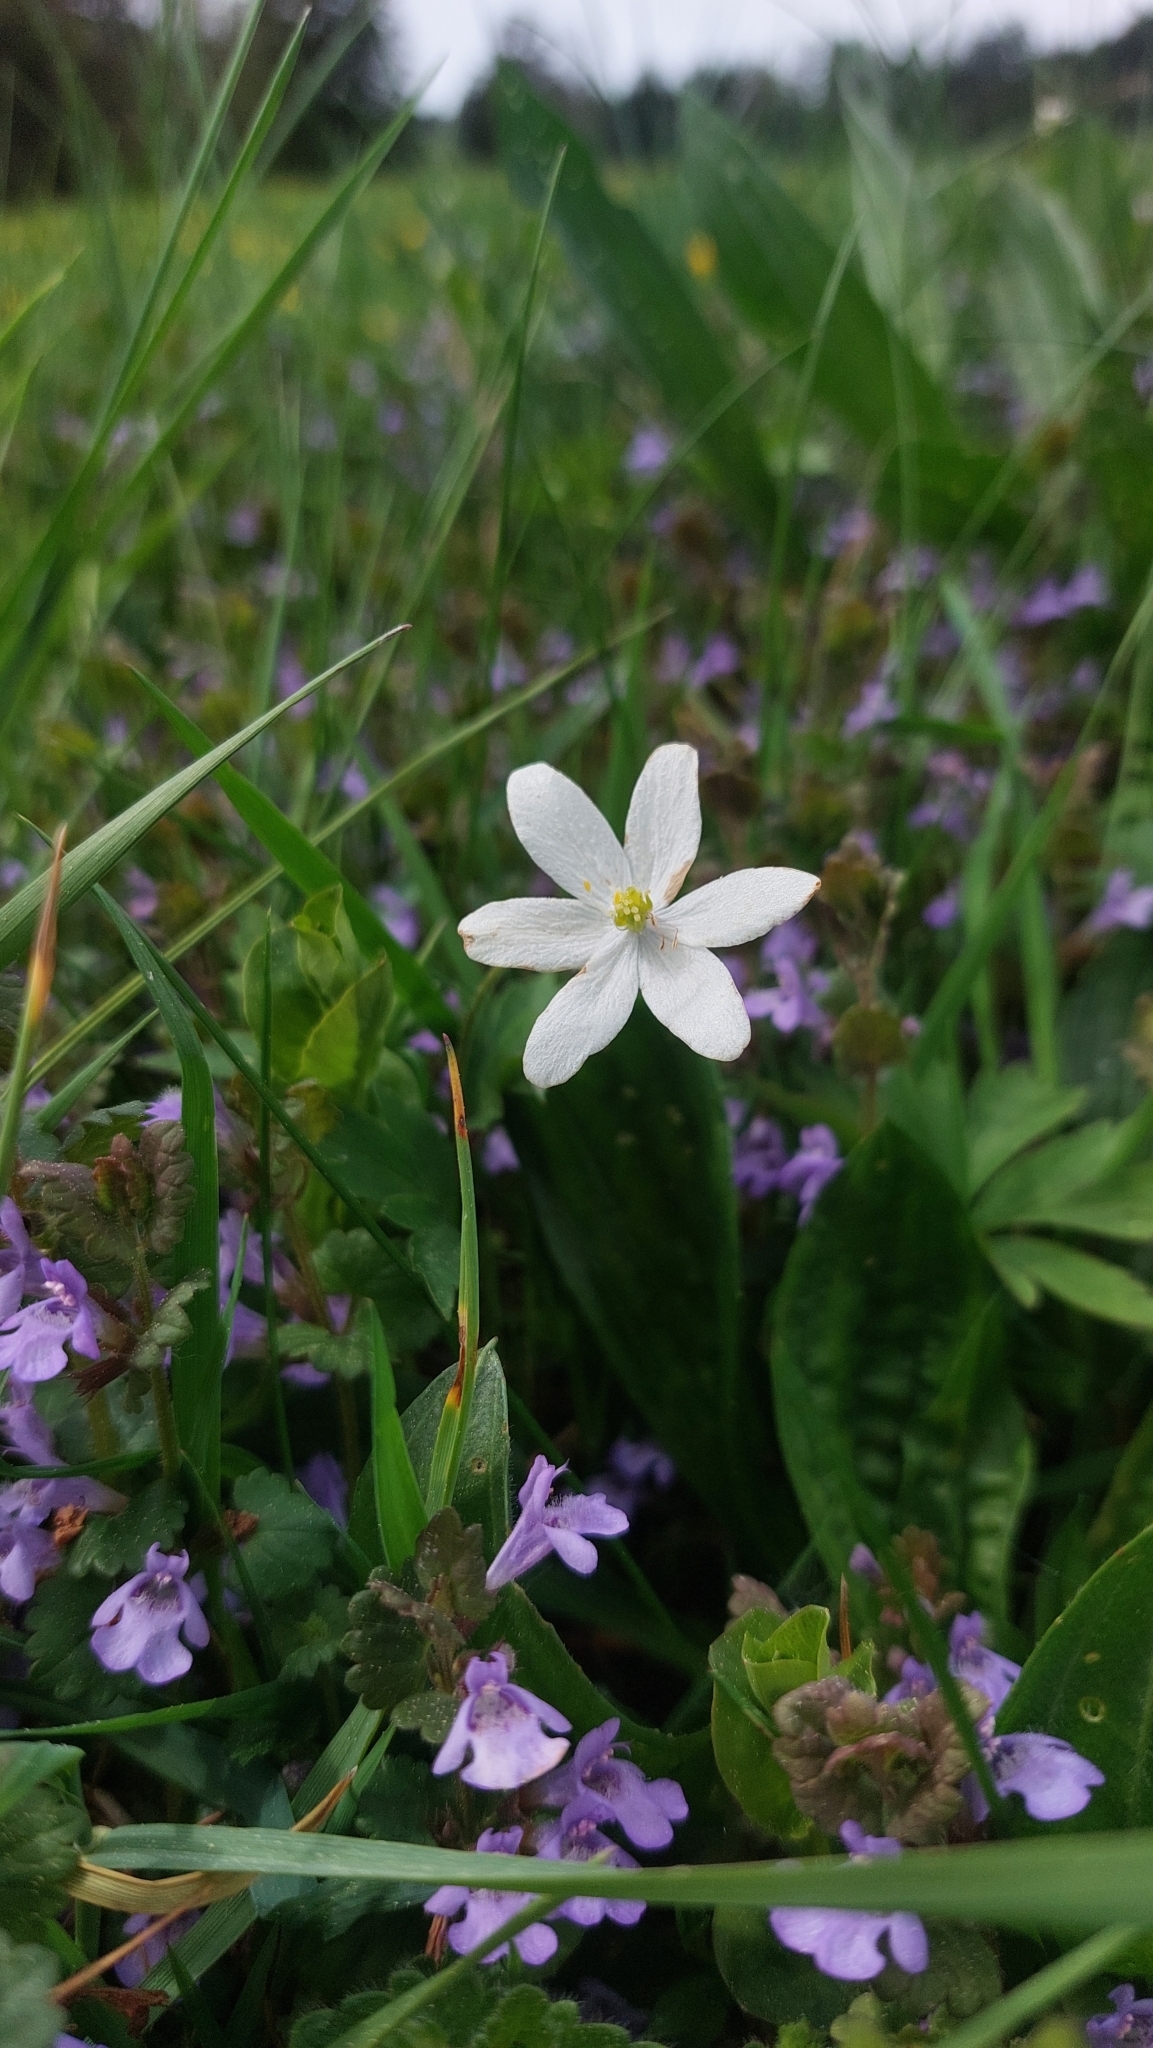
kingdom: Plantae
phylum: Tracheophyta
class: Magnoliopsida
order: Ranunculales
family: Ranunculaceae
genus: Anemone
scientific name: Anemone nemorosa
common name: Wood anemone
